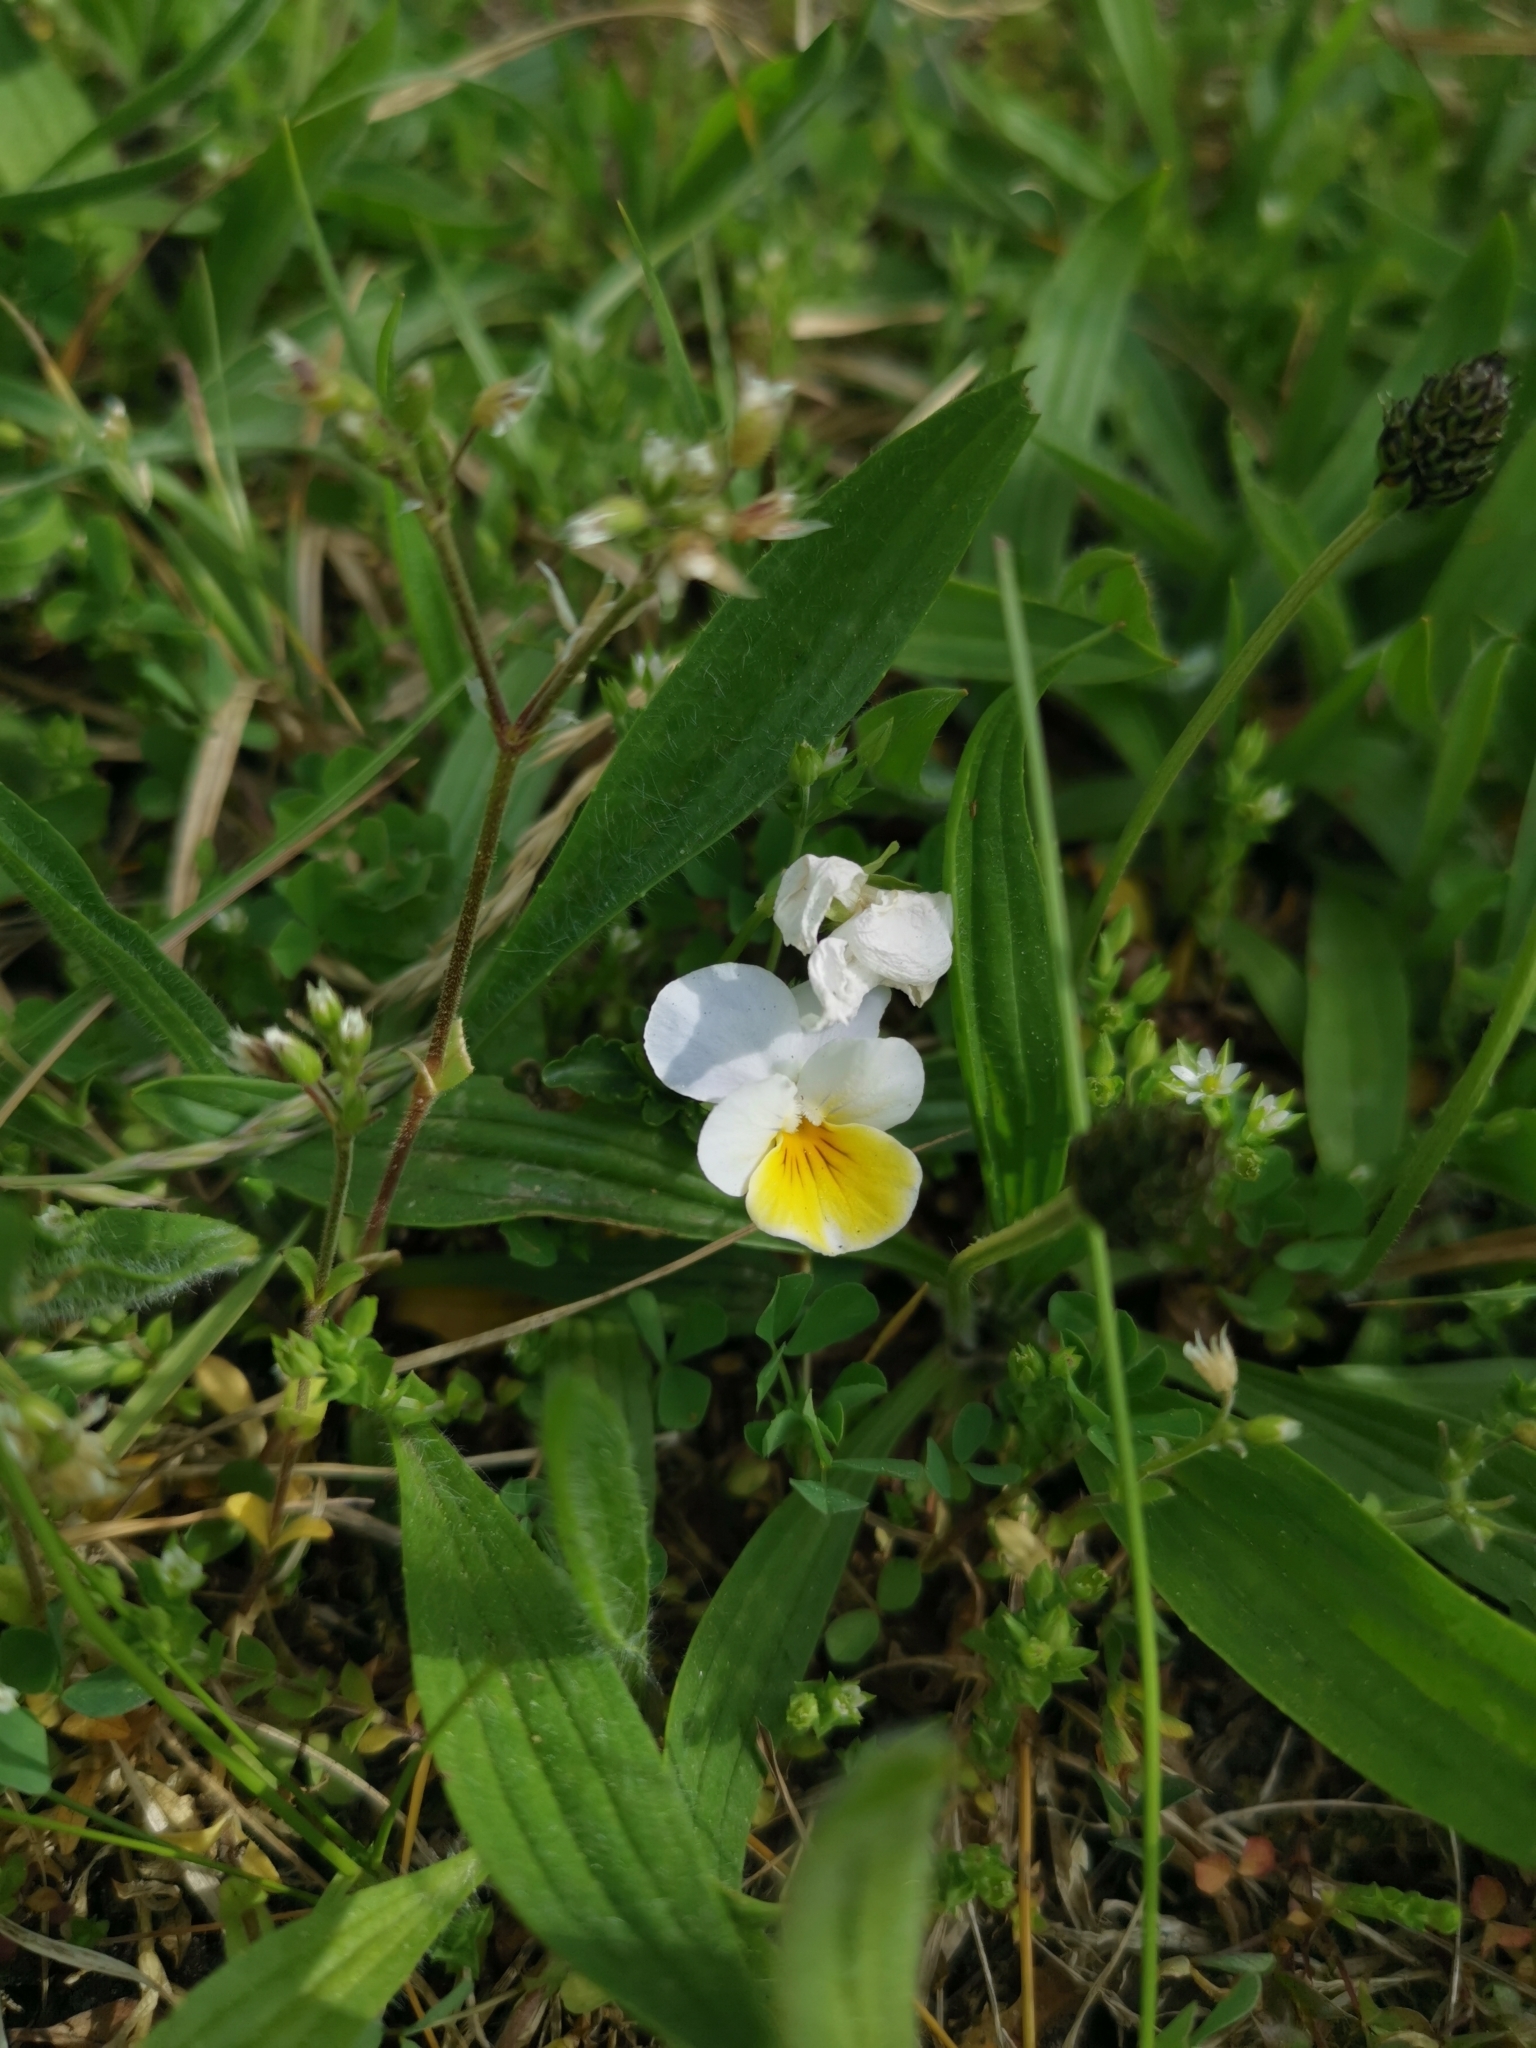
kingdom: Plantae
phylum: Tracheophyta
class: Magnoliopsida
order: Malpighiales
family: Violaceae
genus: Viola
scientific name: Viola wittrockiana
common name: Garden pansy
